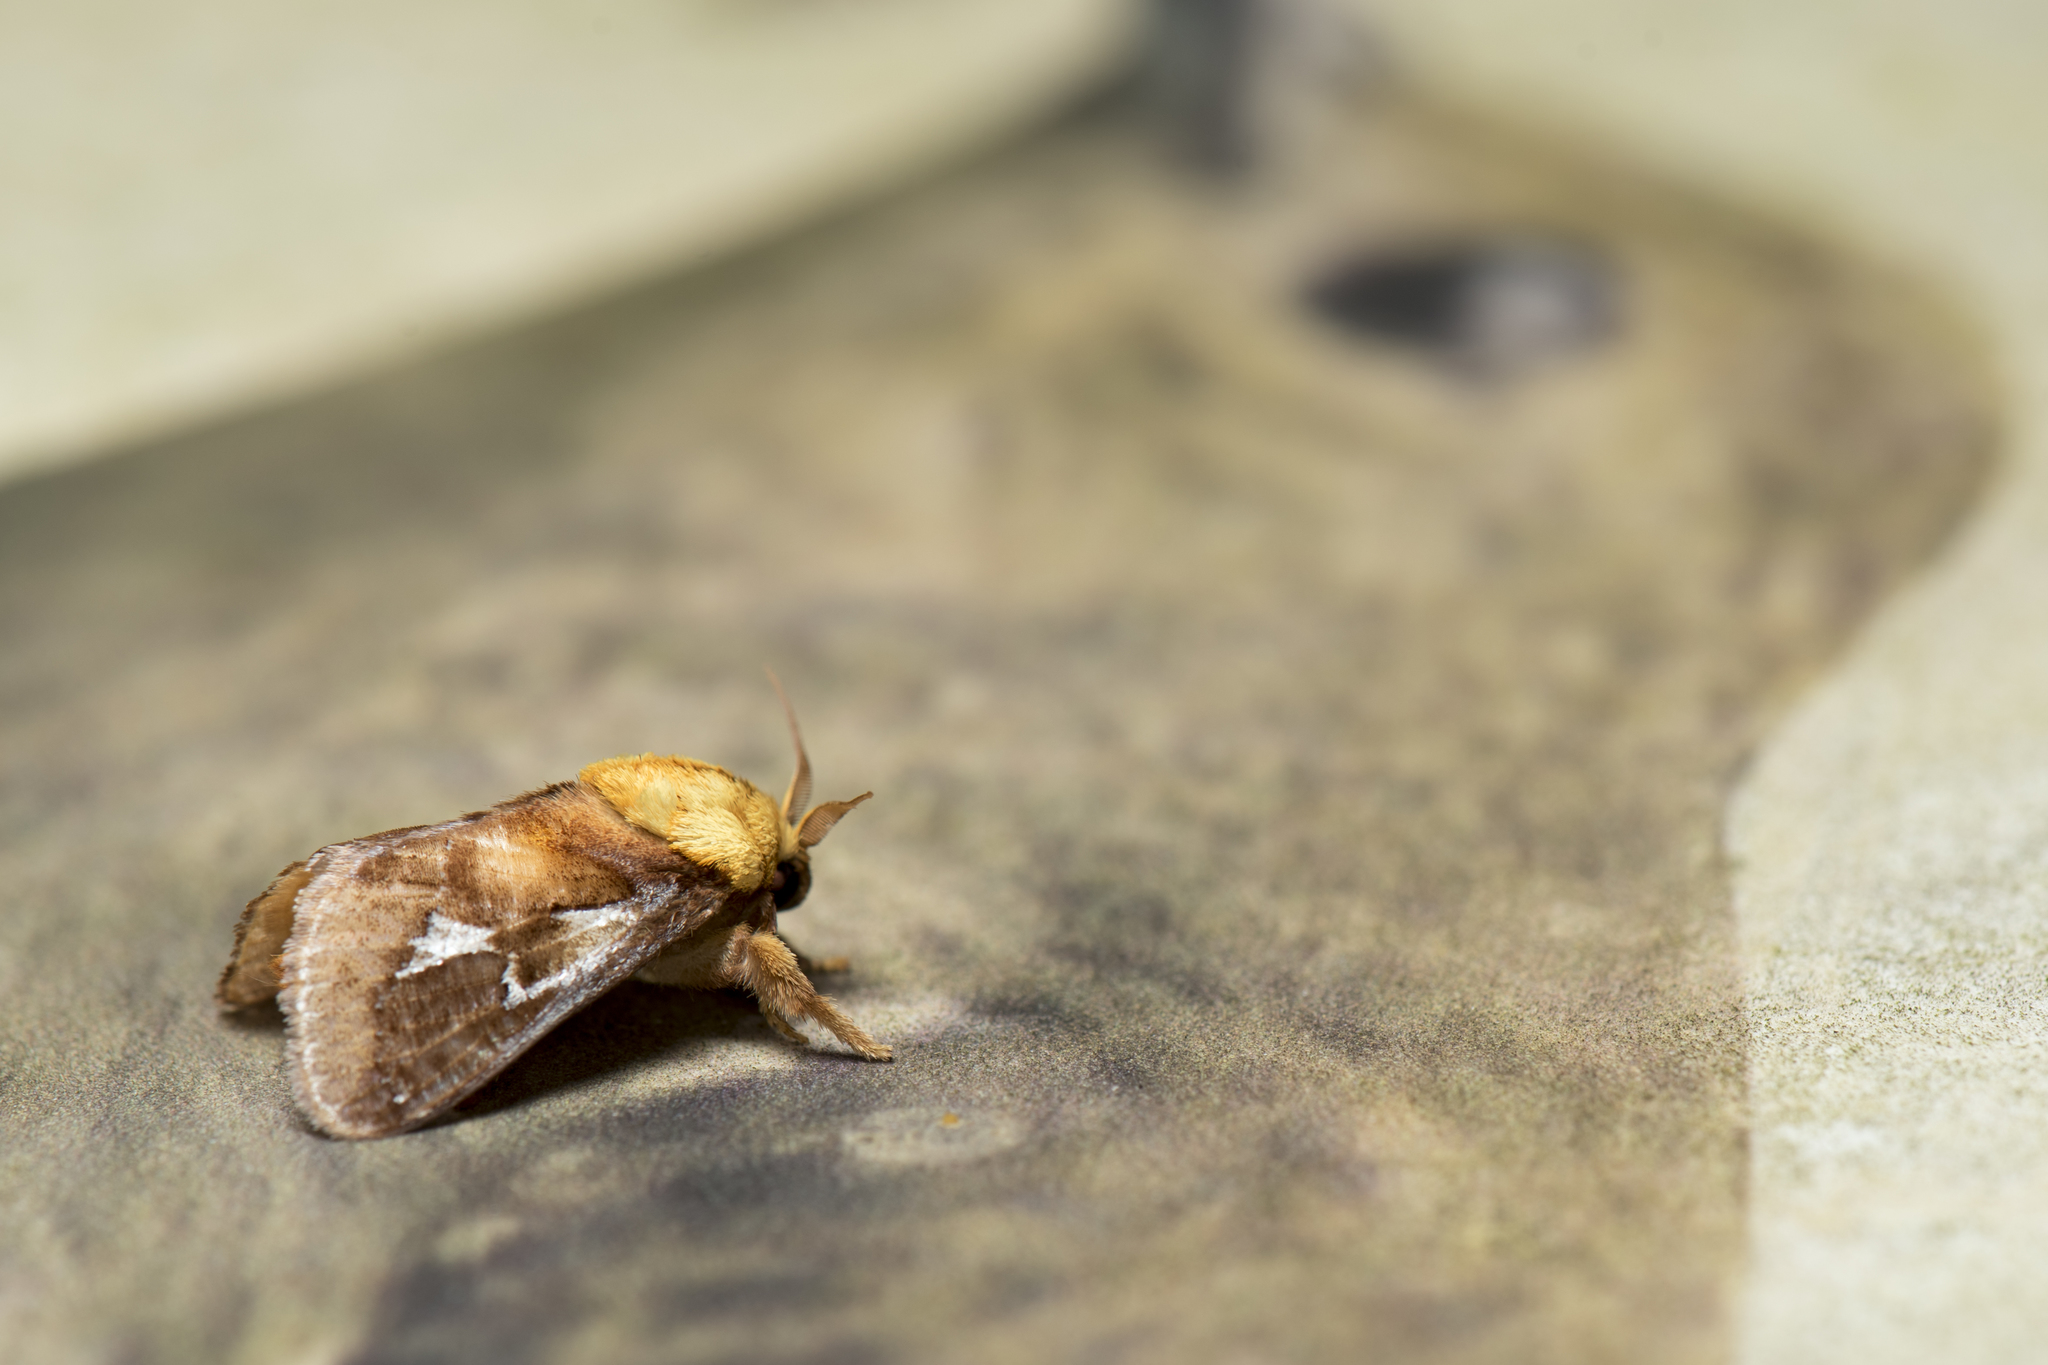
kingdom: Animalia
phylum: Arthropoda
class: Insecta
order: Lepidoptera
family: Limacodidae
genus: Miresa
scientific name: Miresa fulgida
